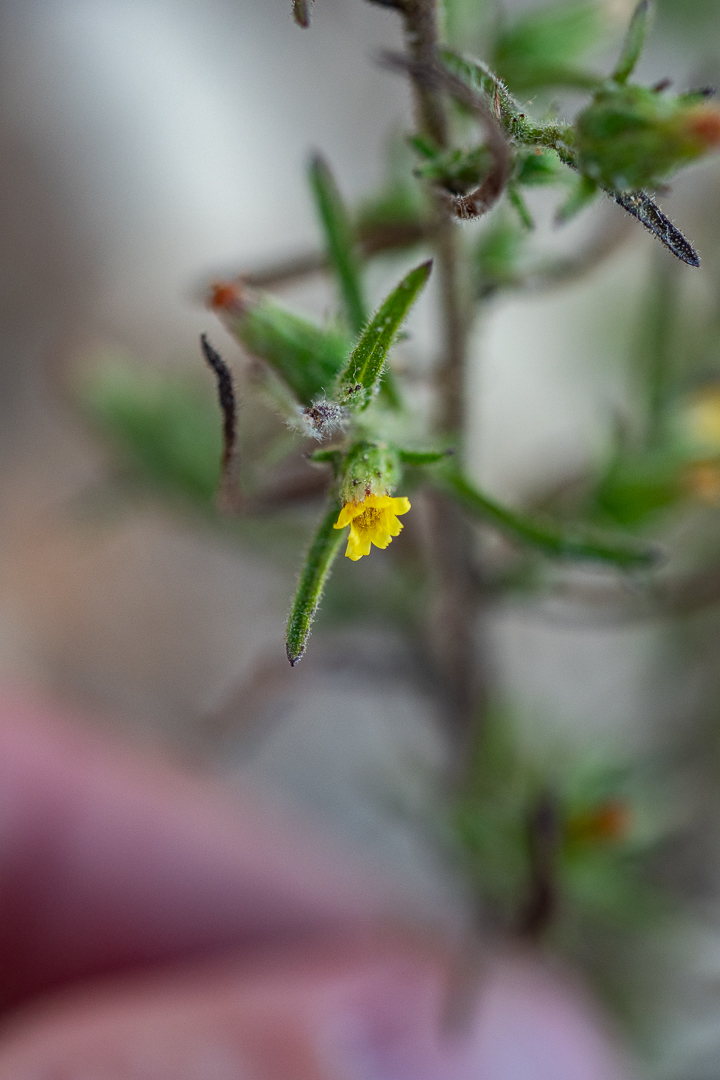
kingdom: Plantae
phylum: Tracheophyta
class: Magnoliopsida
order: Asterales
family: Asteraceae
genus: Dittrichia
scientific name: Dittrichia graveolens
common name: Stinking fleabane
